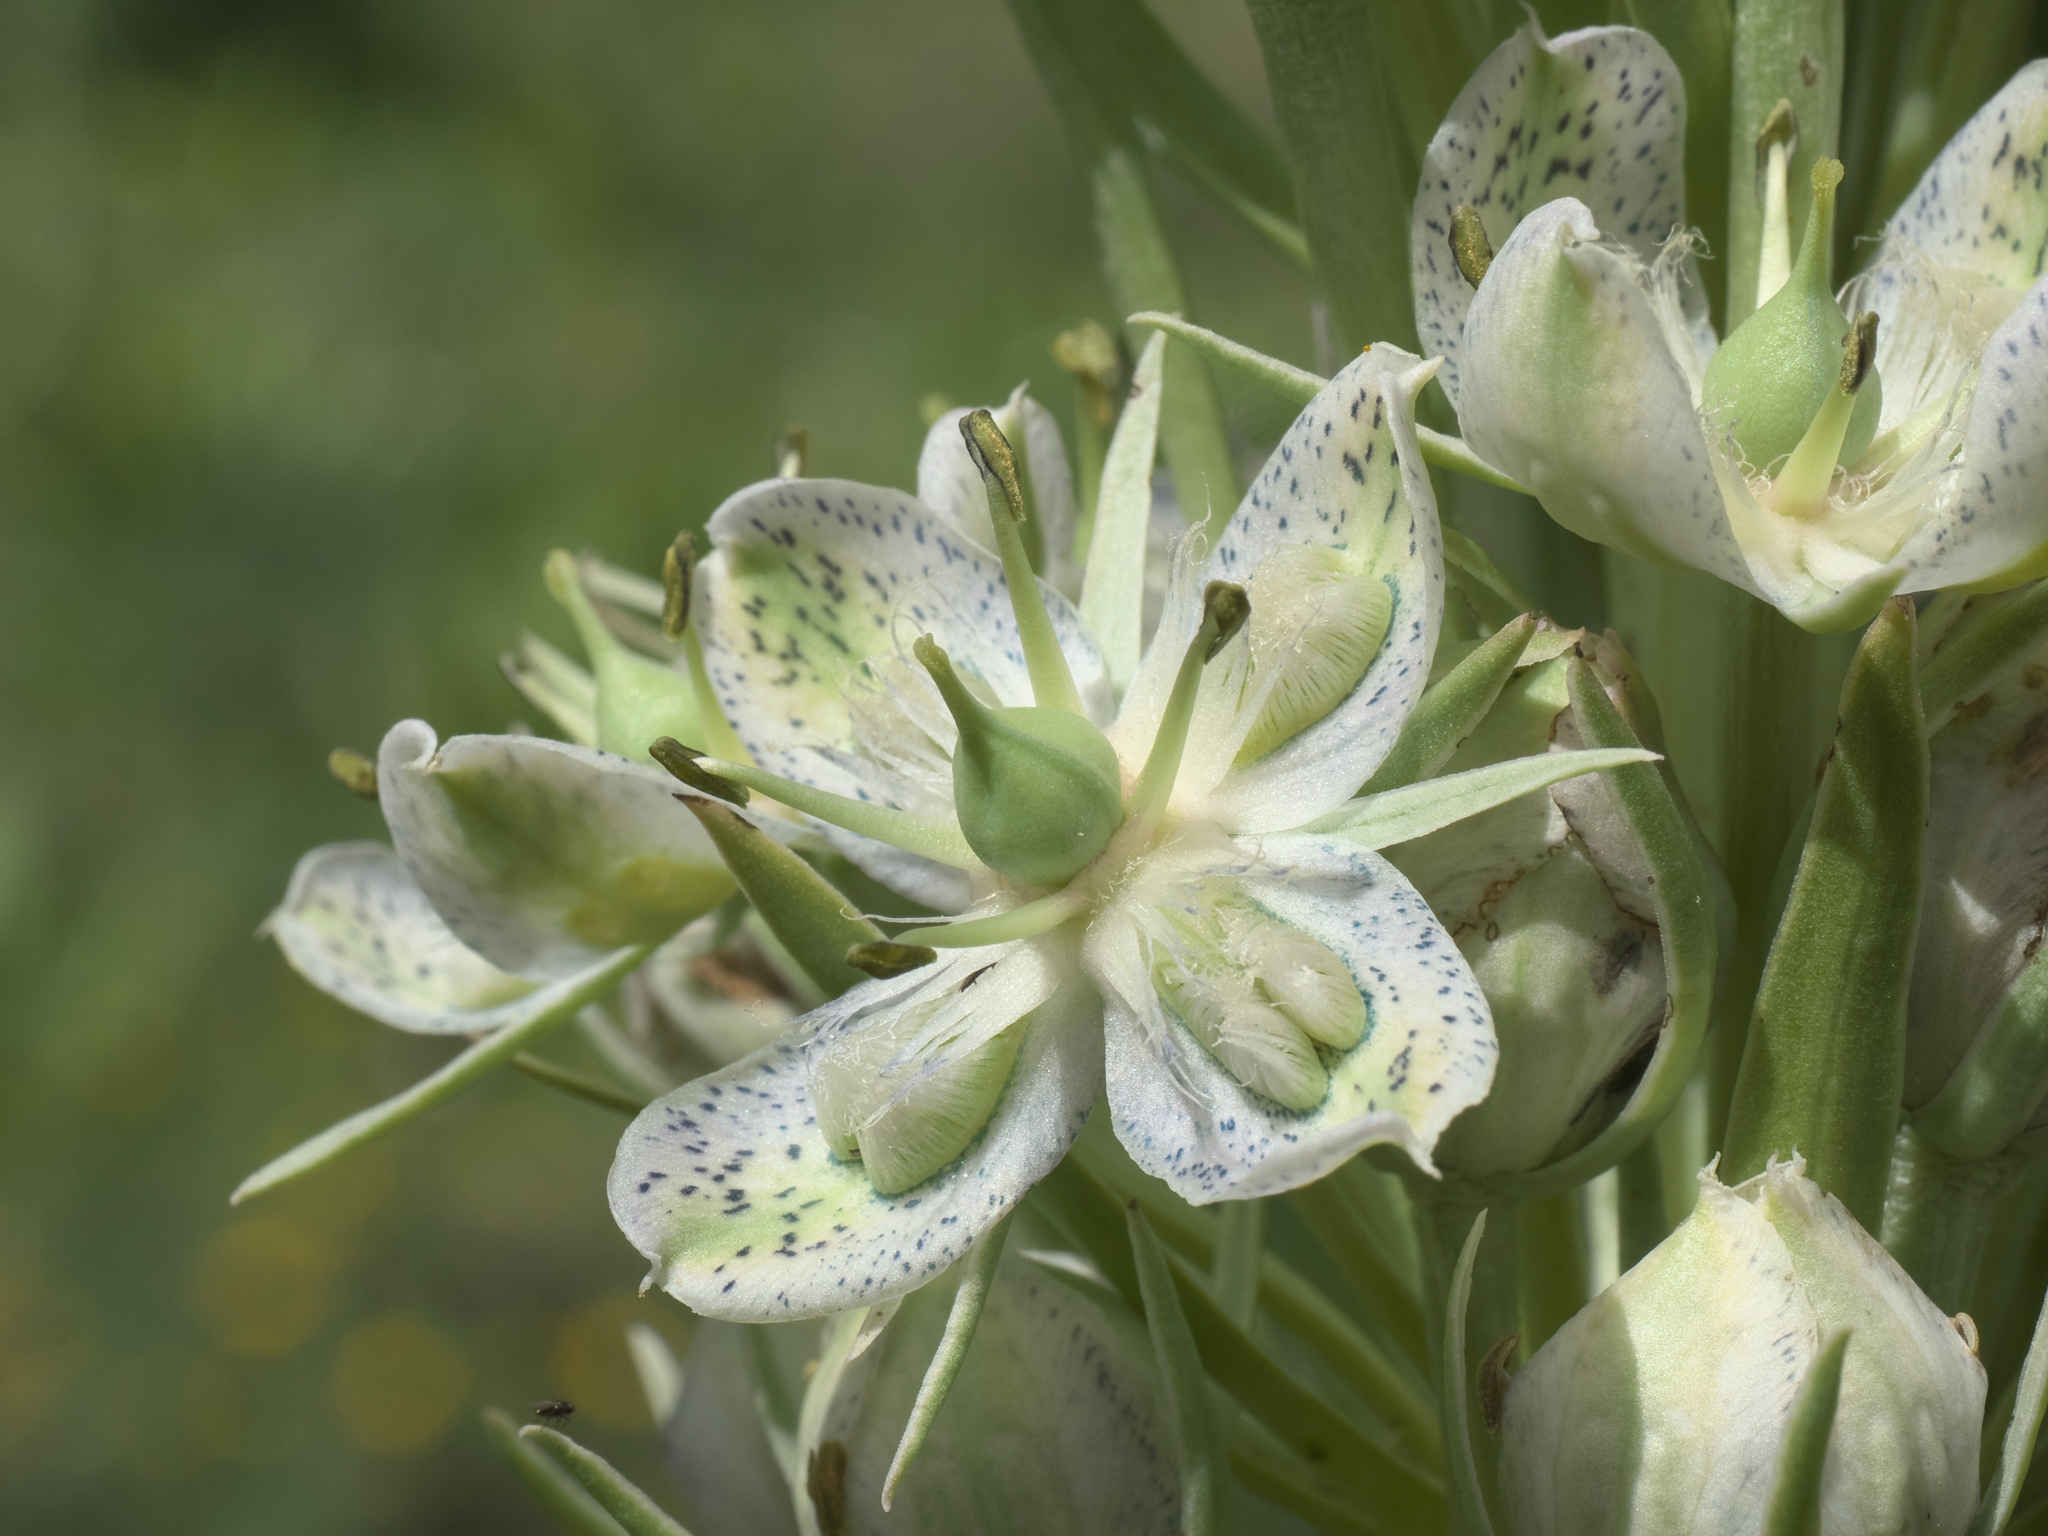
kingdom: Plantae
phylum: Tracheophyta
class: Magnoliopsida
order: Gentianales
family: Gentianaceae
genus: Frasera
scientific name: Frasera speciosa
